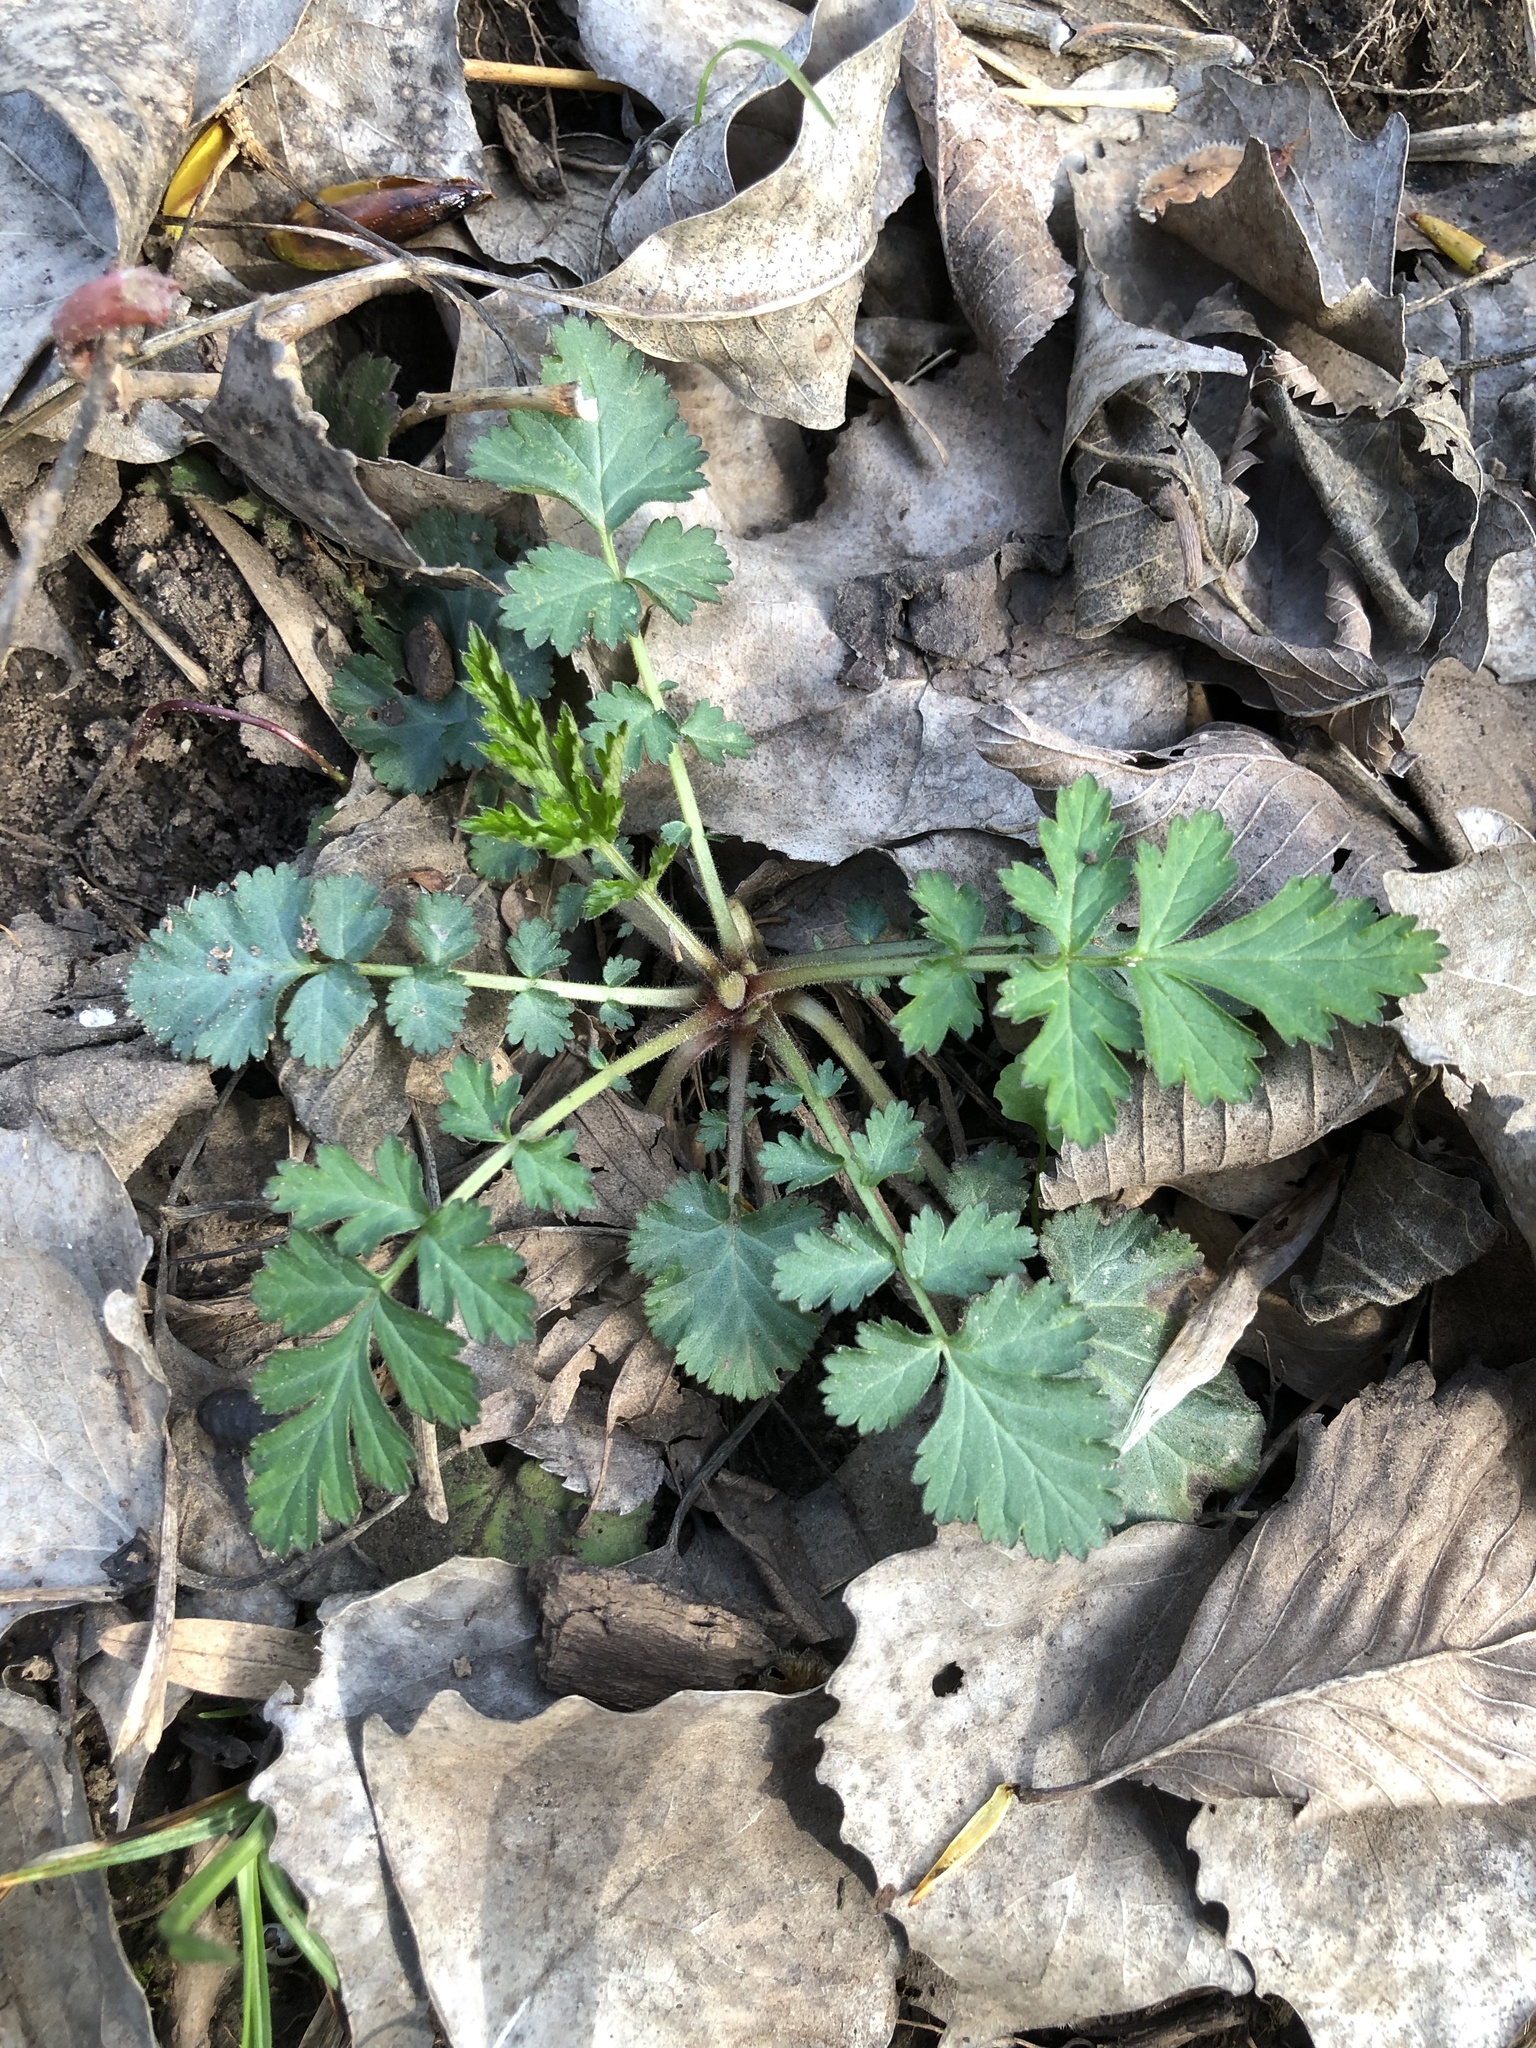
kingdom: Plantae
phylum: Tracheophyta
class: Magnoliopsida
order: Rosales
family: Rosaceae
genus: Geum
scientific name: Geum canadense
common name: White avens
